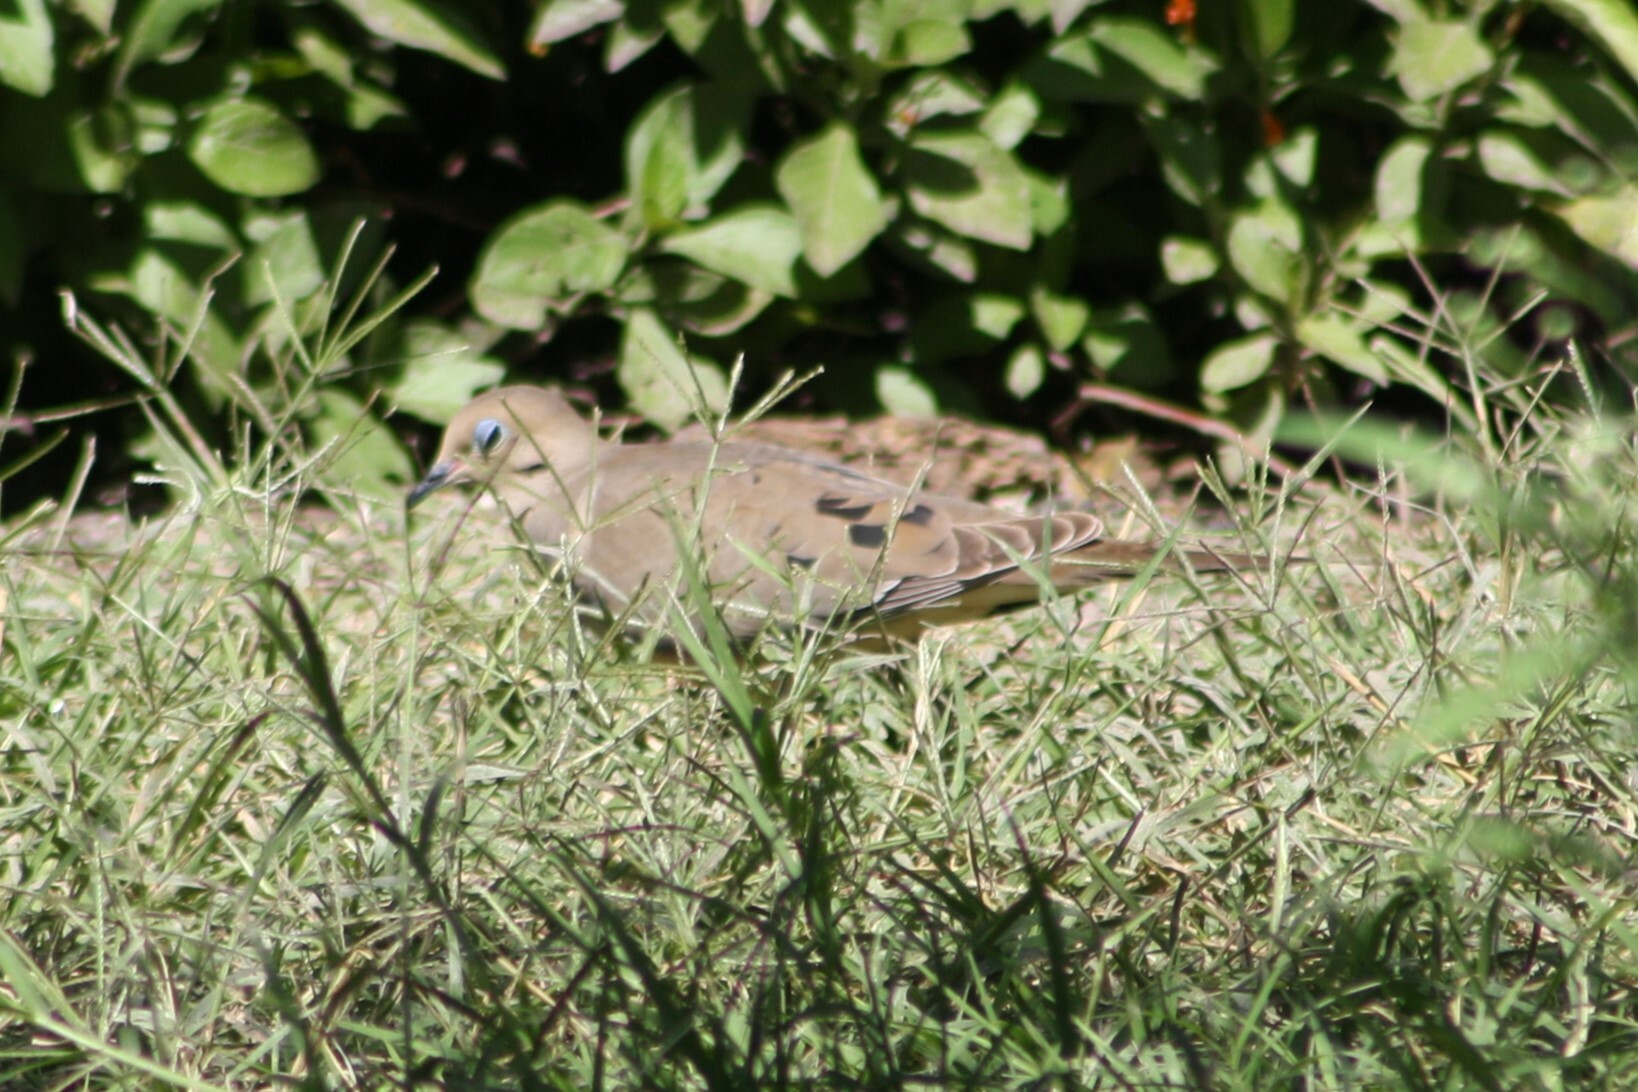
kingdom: Animalia
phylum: Chordata
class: Aves
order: Columbiformes
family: Columbidae
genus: Zenaida
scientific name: Zenaida macroura
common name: Mourning dove
